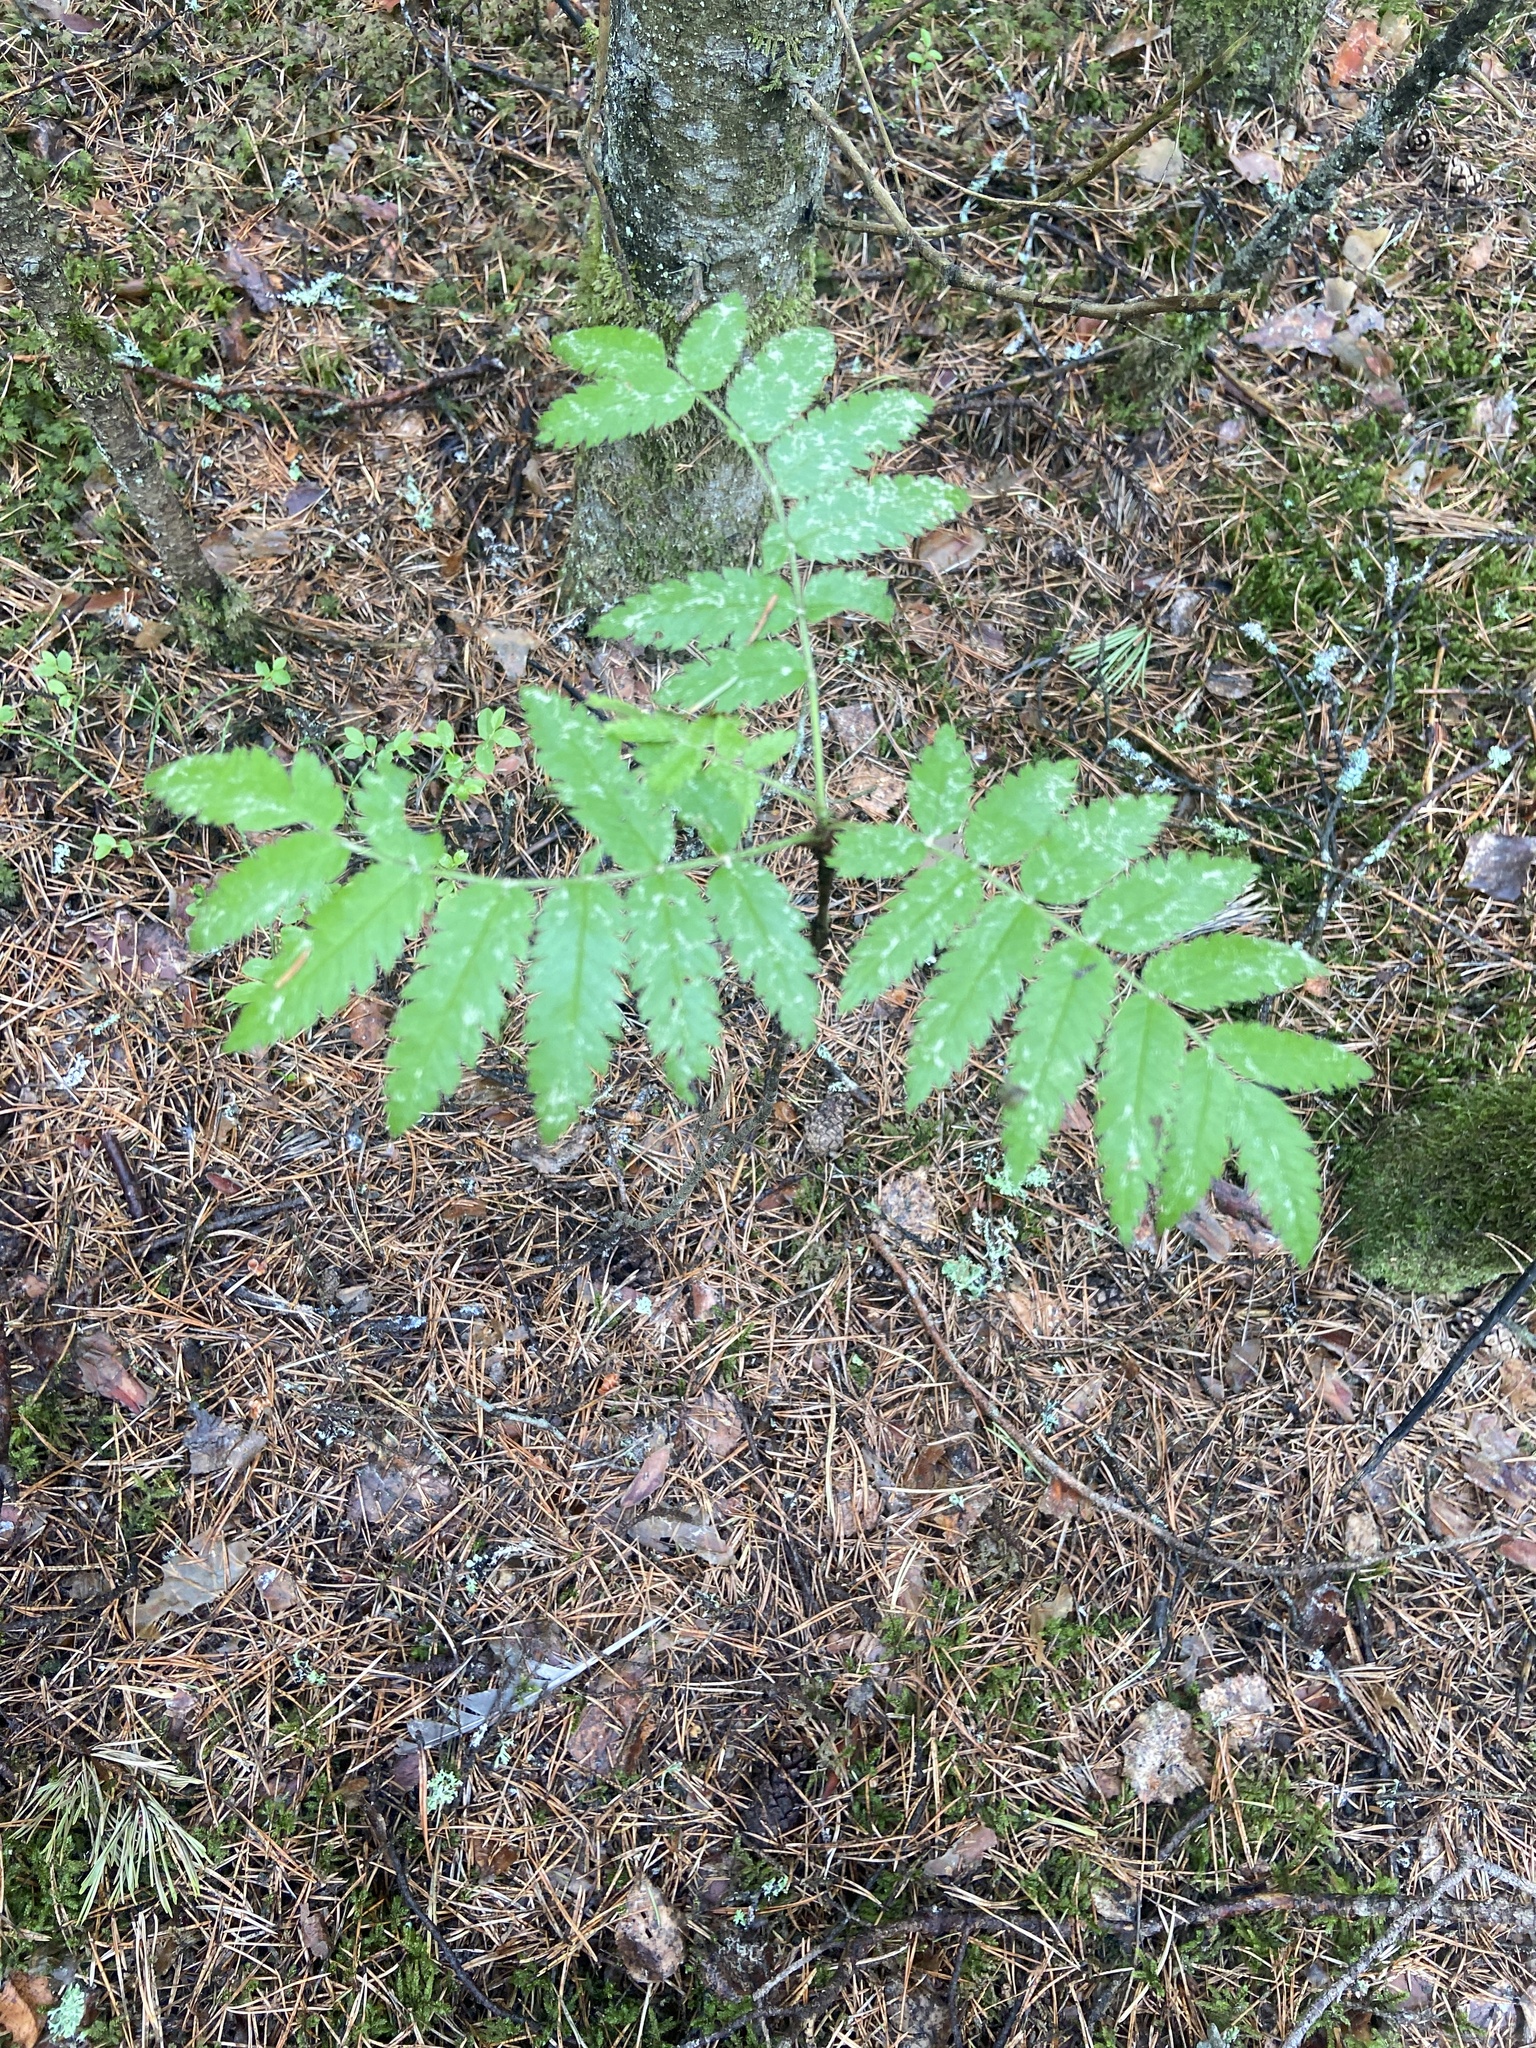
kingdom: Plantae
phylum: Tracheophyta
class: Magnoliopsida
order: Rosales
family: Rosaceae
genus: Sorbus
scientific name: Sorbus aucuparia
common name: Rowan
